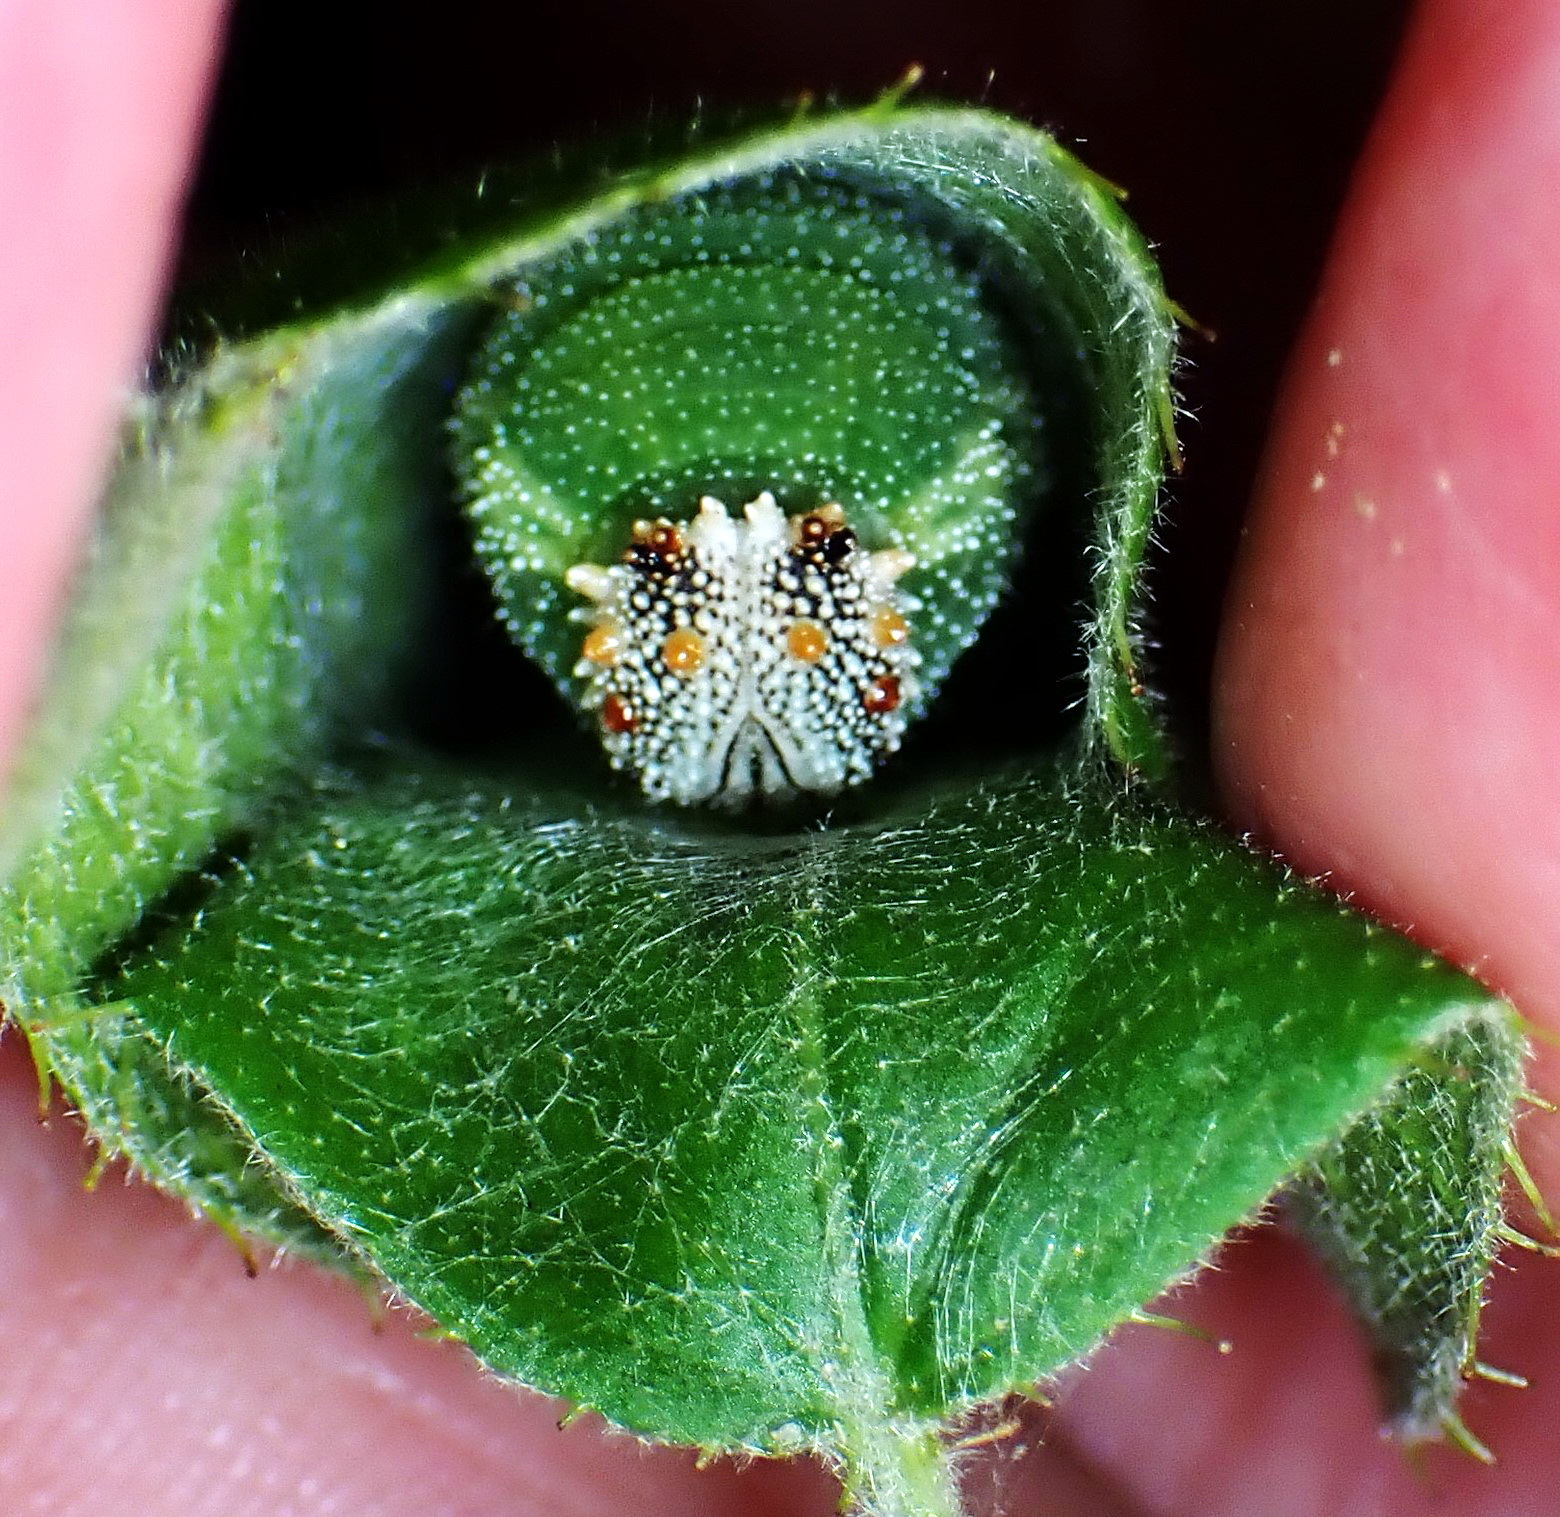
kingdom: Animalia
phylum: Arthropoda
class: Insecta
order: Lepidoptera
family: Nymphalidae
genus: Anaea
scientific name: Anaea aidea
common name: Tropical leafwing
